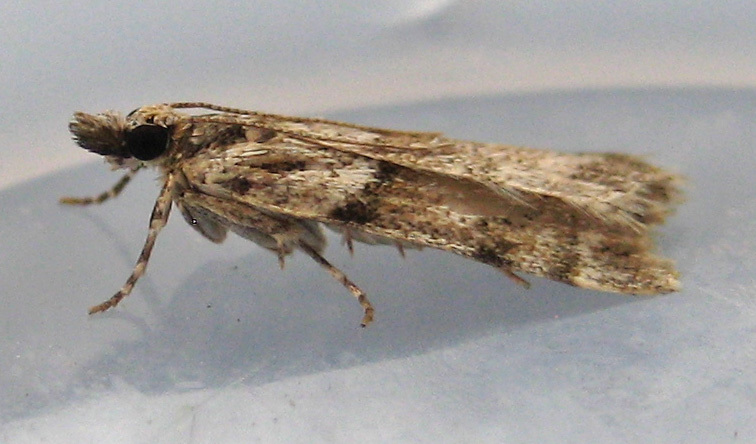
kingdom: Animalia
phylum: Arthropoda
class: Insecta
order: Lepidoptera
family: Crambidae
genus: Scoparia
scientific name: Scoparia biplagialis
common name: Double-striped scoparia moth
